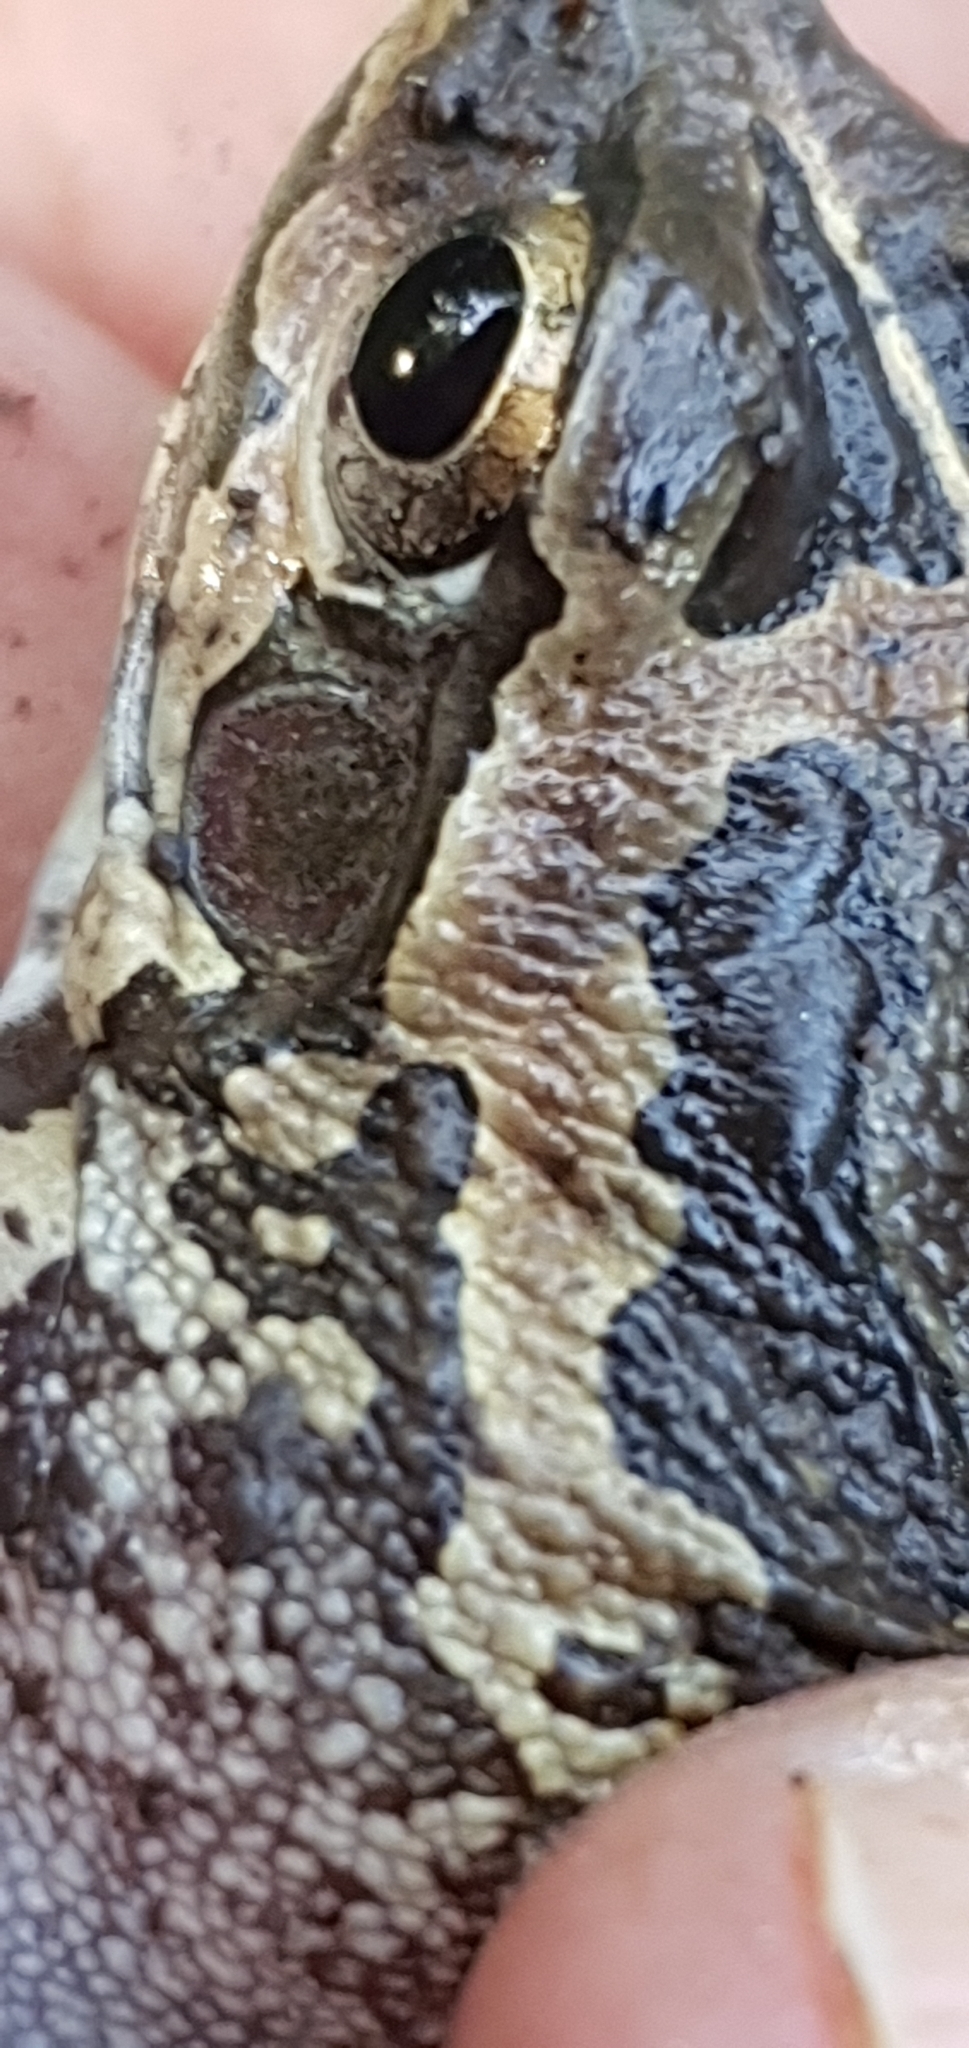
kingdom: Animalia
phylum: Chordata
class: Amphibia
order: Anura
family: Pelodryadidae
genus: Ranoidea
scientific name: Ranoidea brevipes
